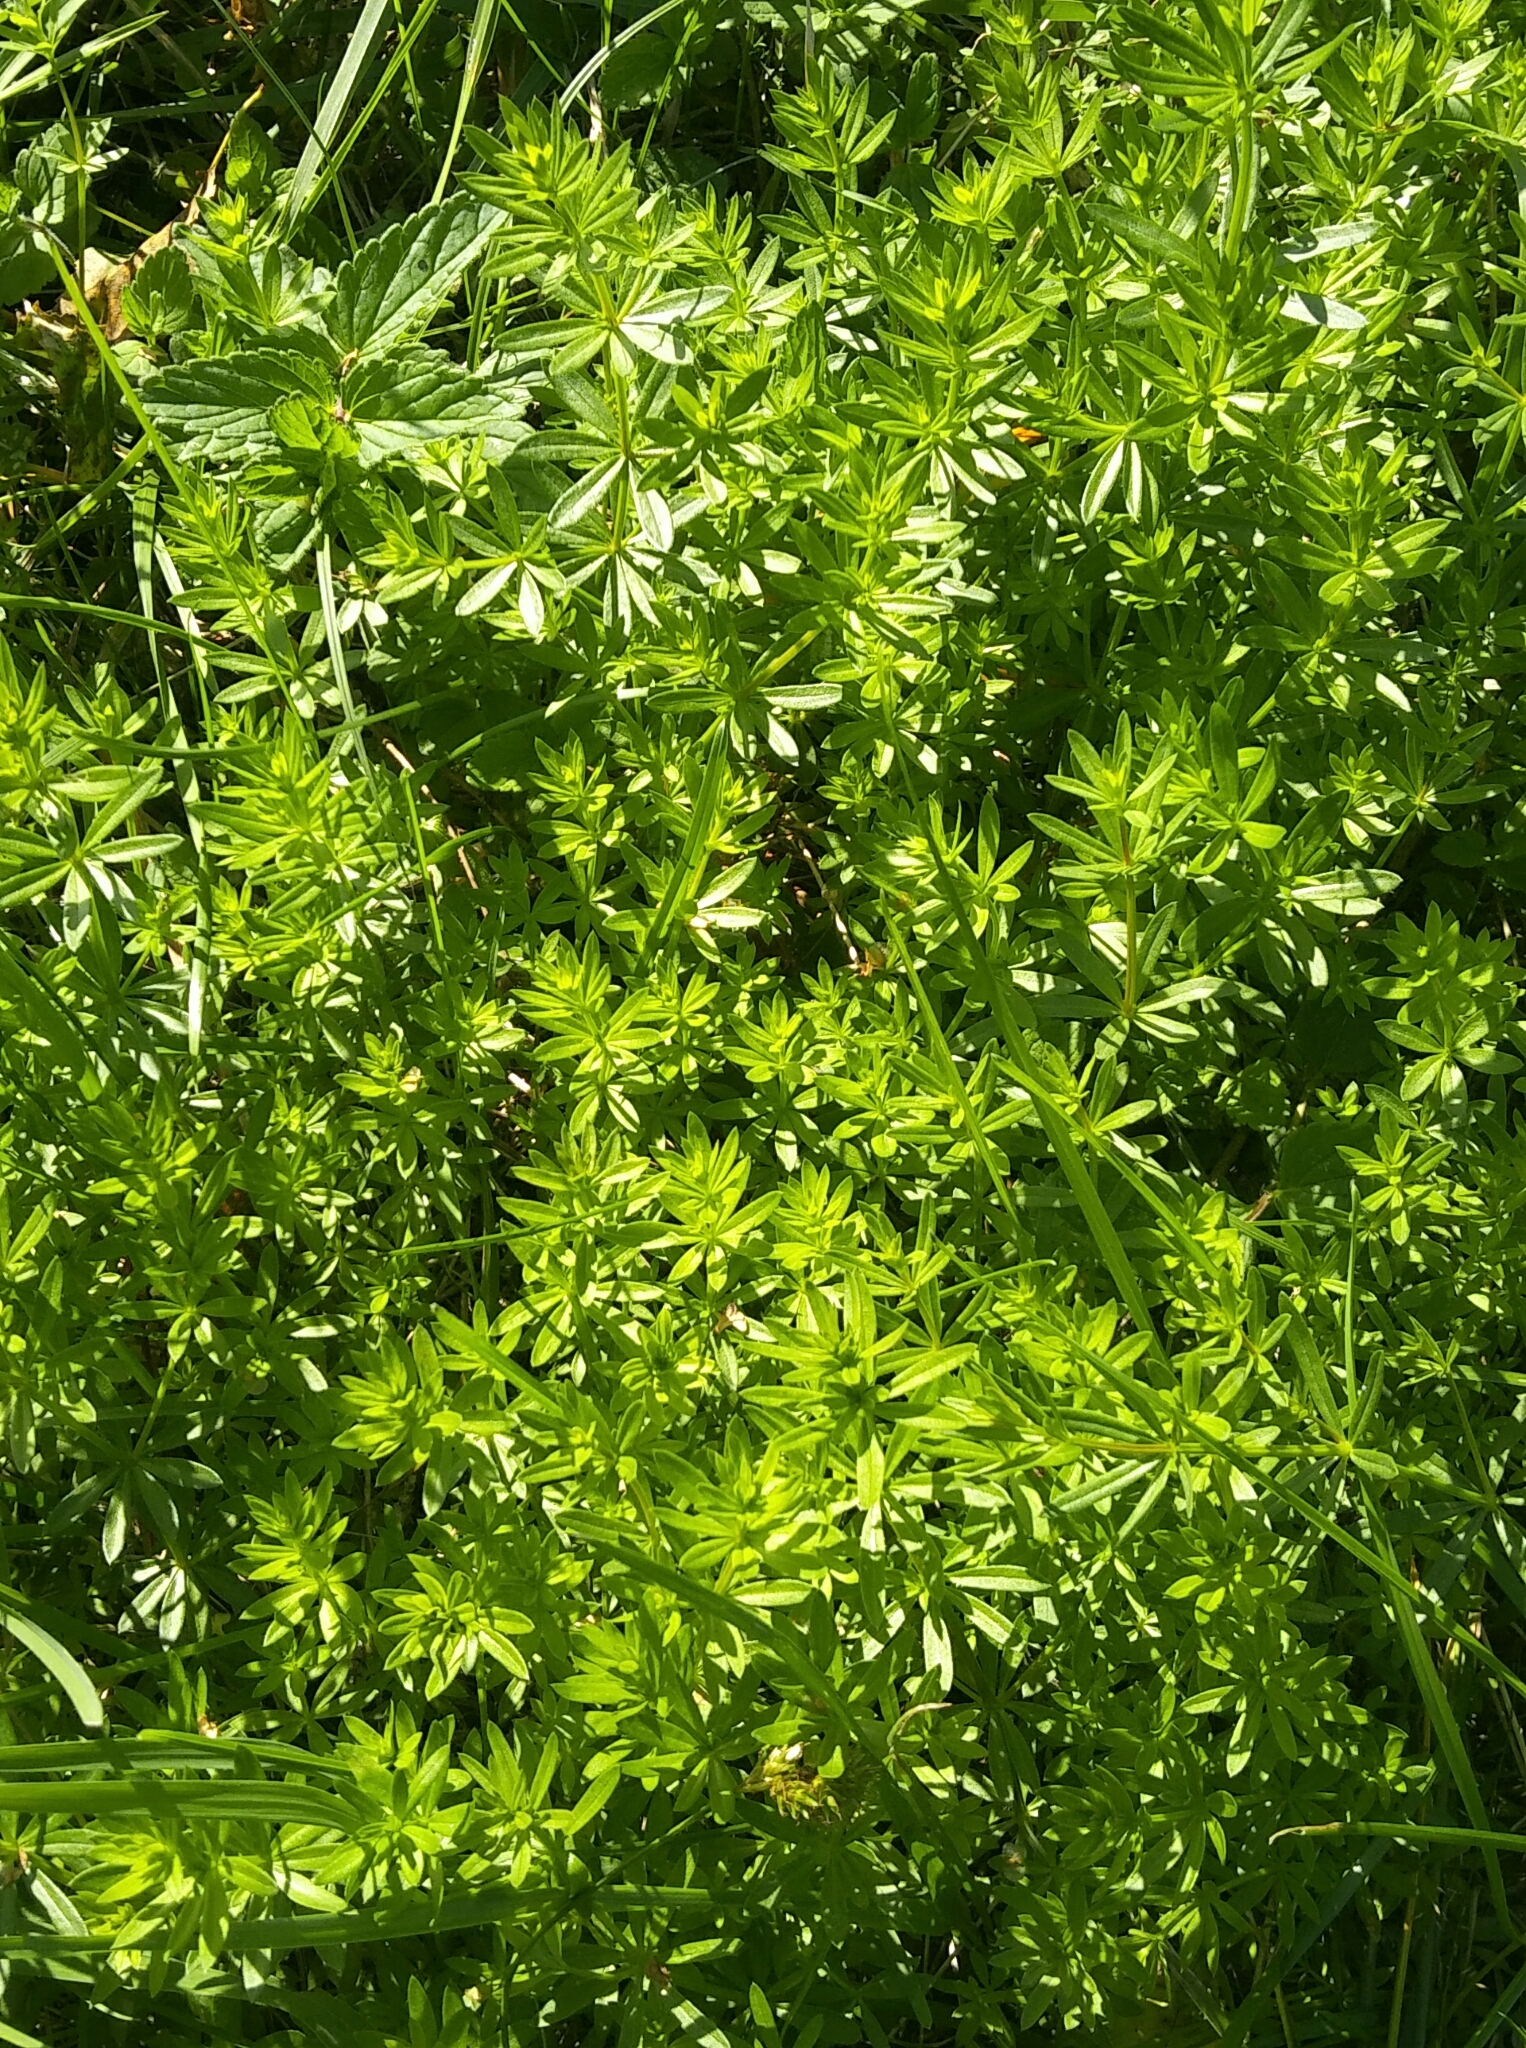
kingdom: Plantae
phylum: Tracheophyta
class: Magnoliopsida
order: Gentianales
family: Rubiaceae
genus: Galium
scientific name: Galium mollugo
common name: Hedge bedstraw
